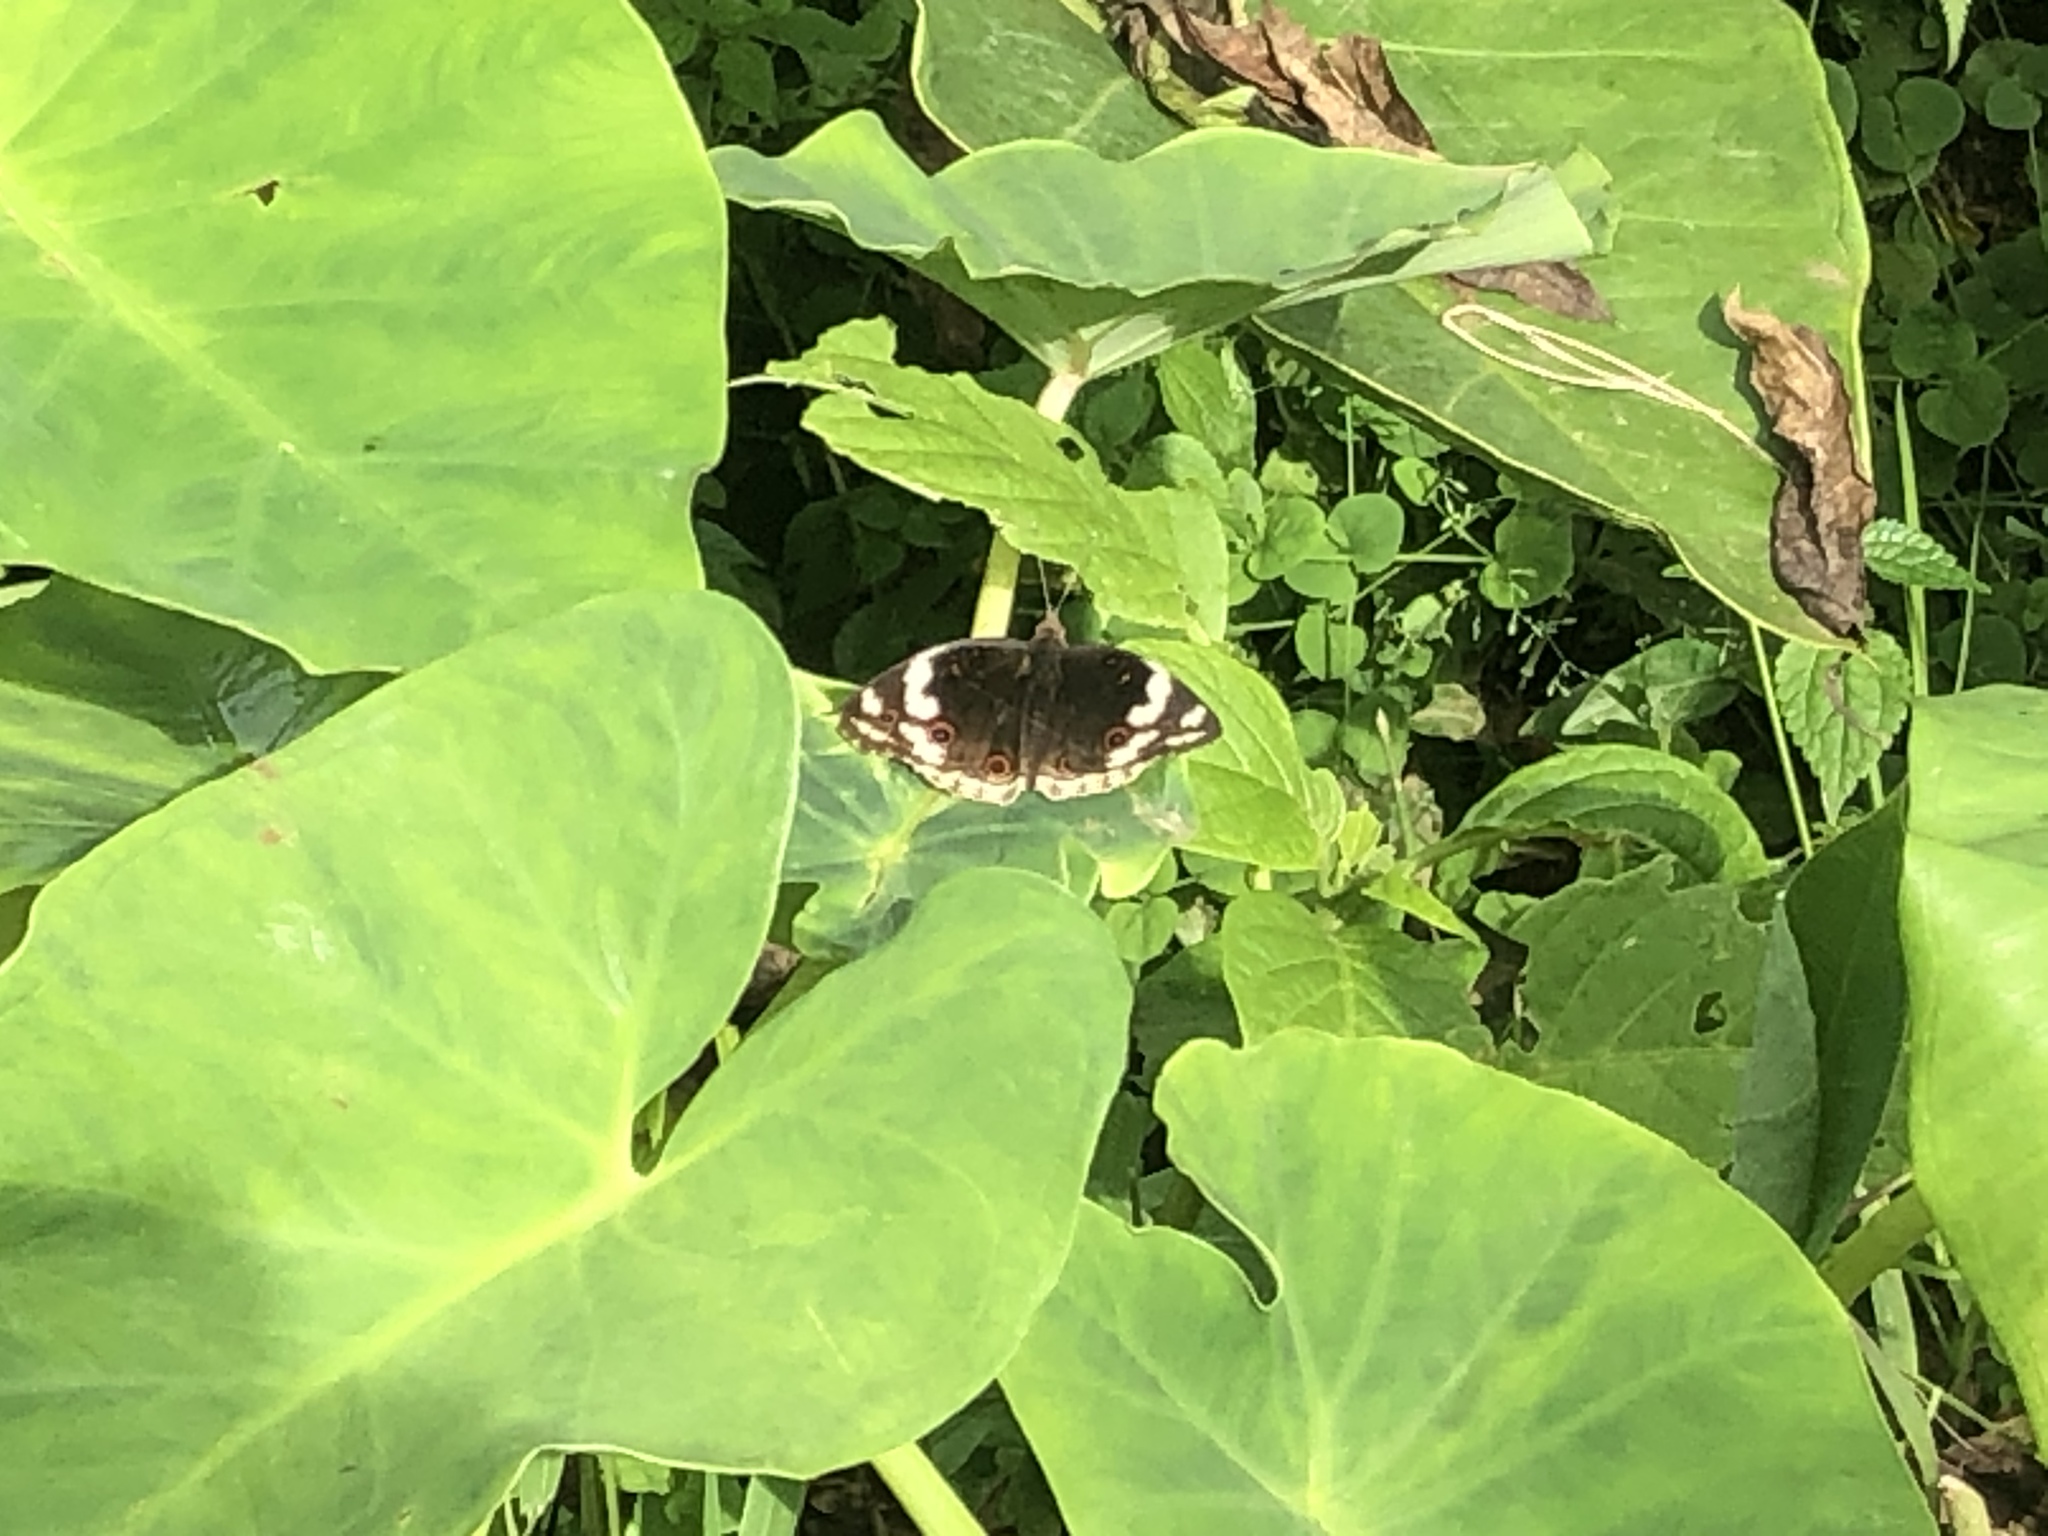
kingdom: Animalia
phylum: Arthropoda
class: Insecta
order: Lepidoptera
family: Nymphalidae
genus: Junonia
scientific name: Junonia oenone
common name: Dark blue pansy
